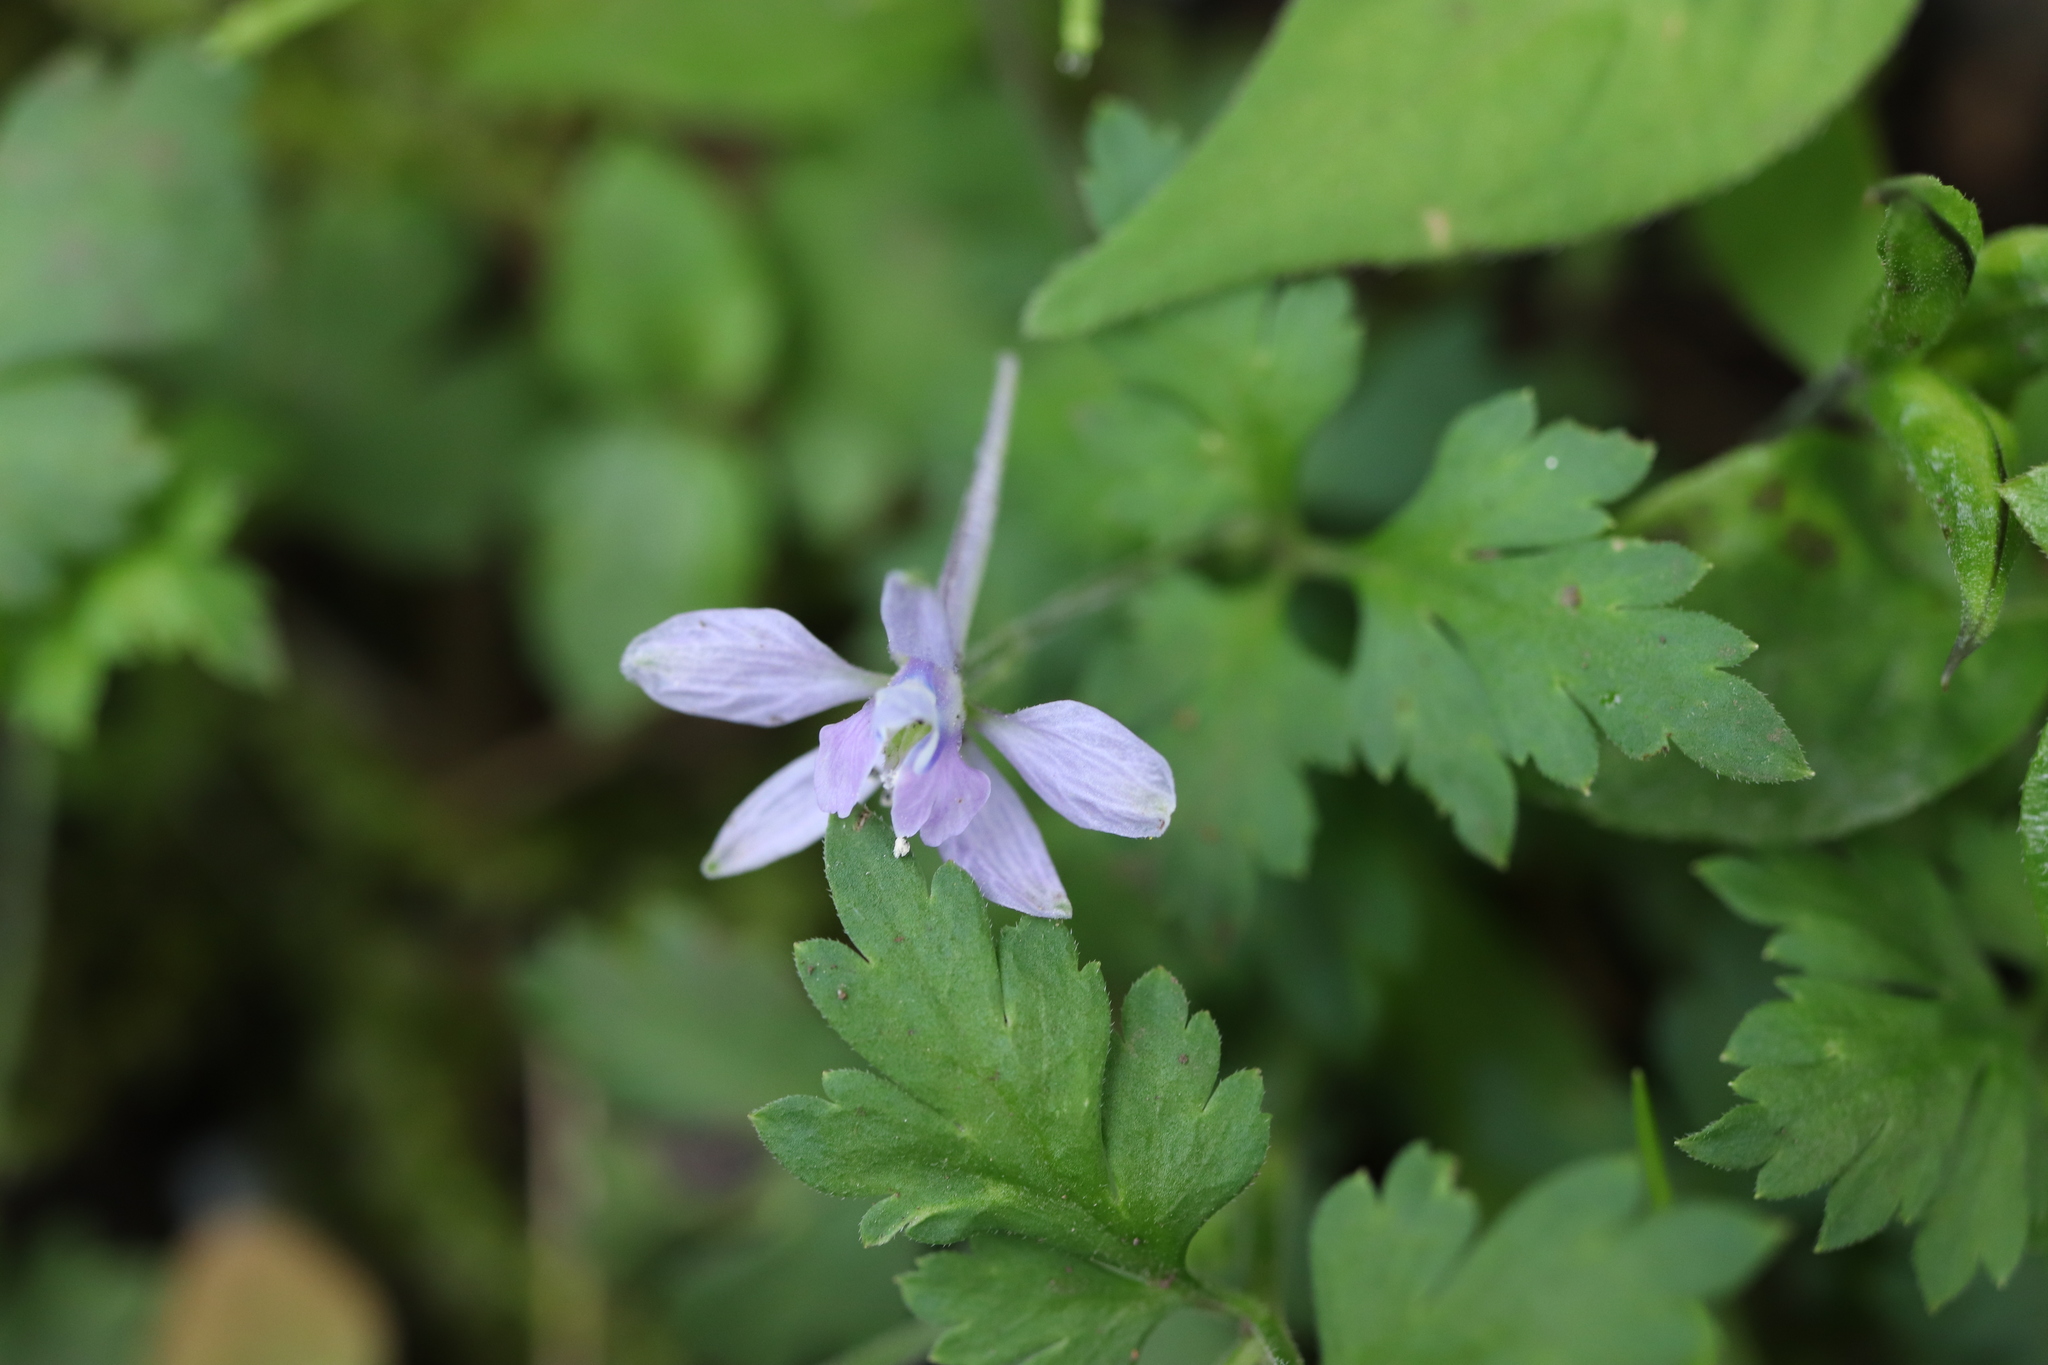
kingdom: Plantae
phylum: Tracheophyta
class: Magnoliopsida
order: Ranunculales
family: Ranunculaceae
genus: Delphinium
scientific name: Delphinium anthriscifolium
